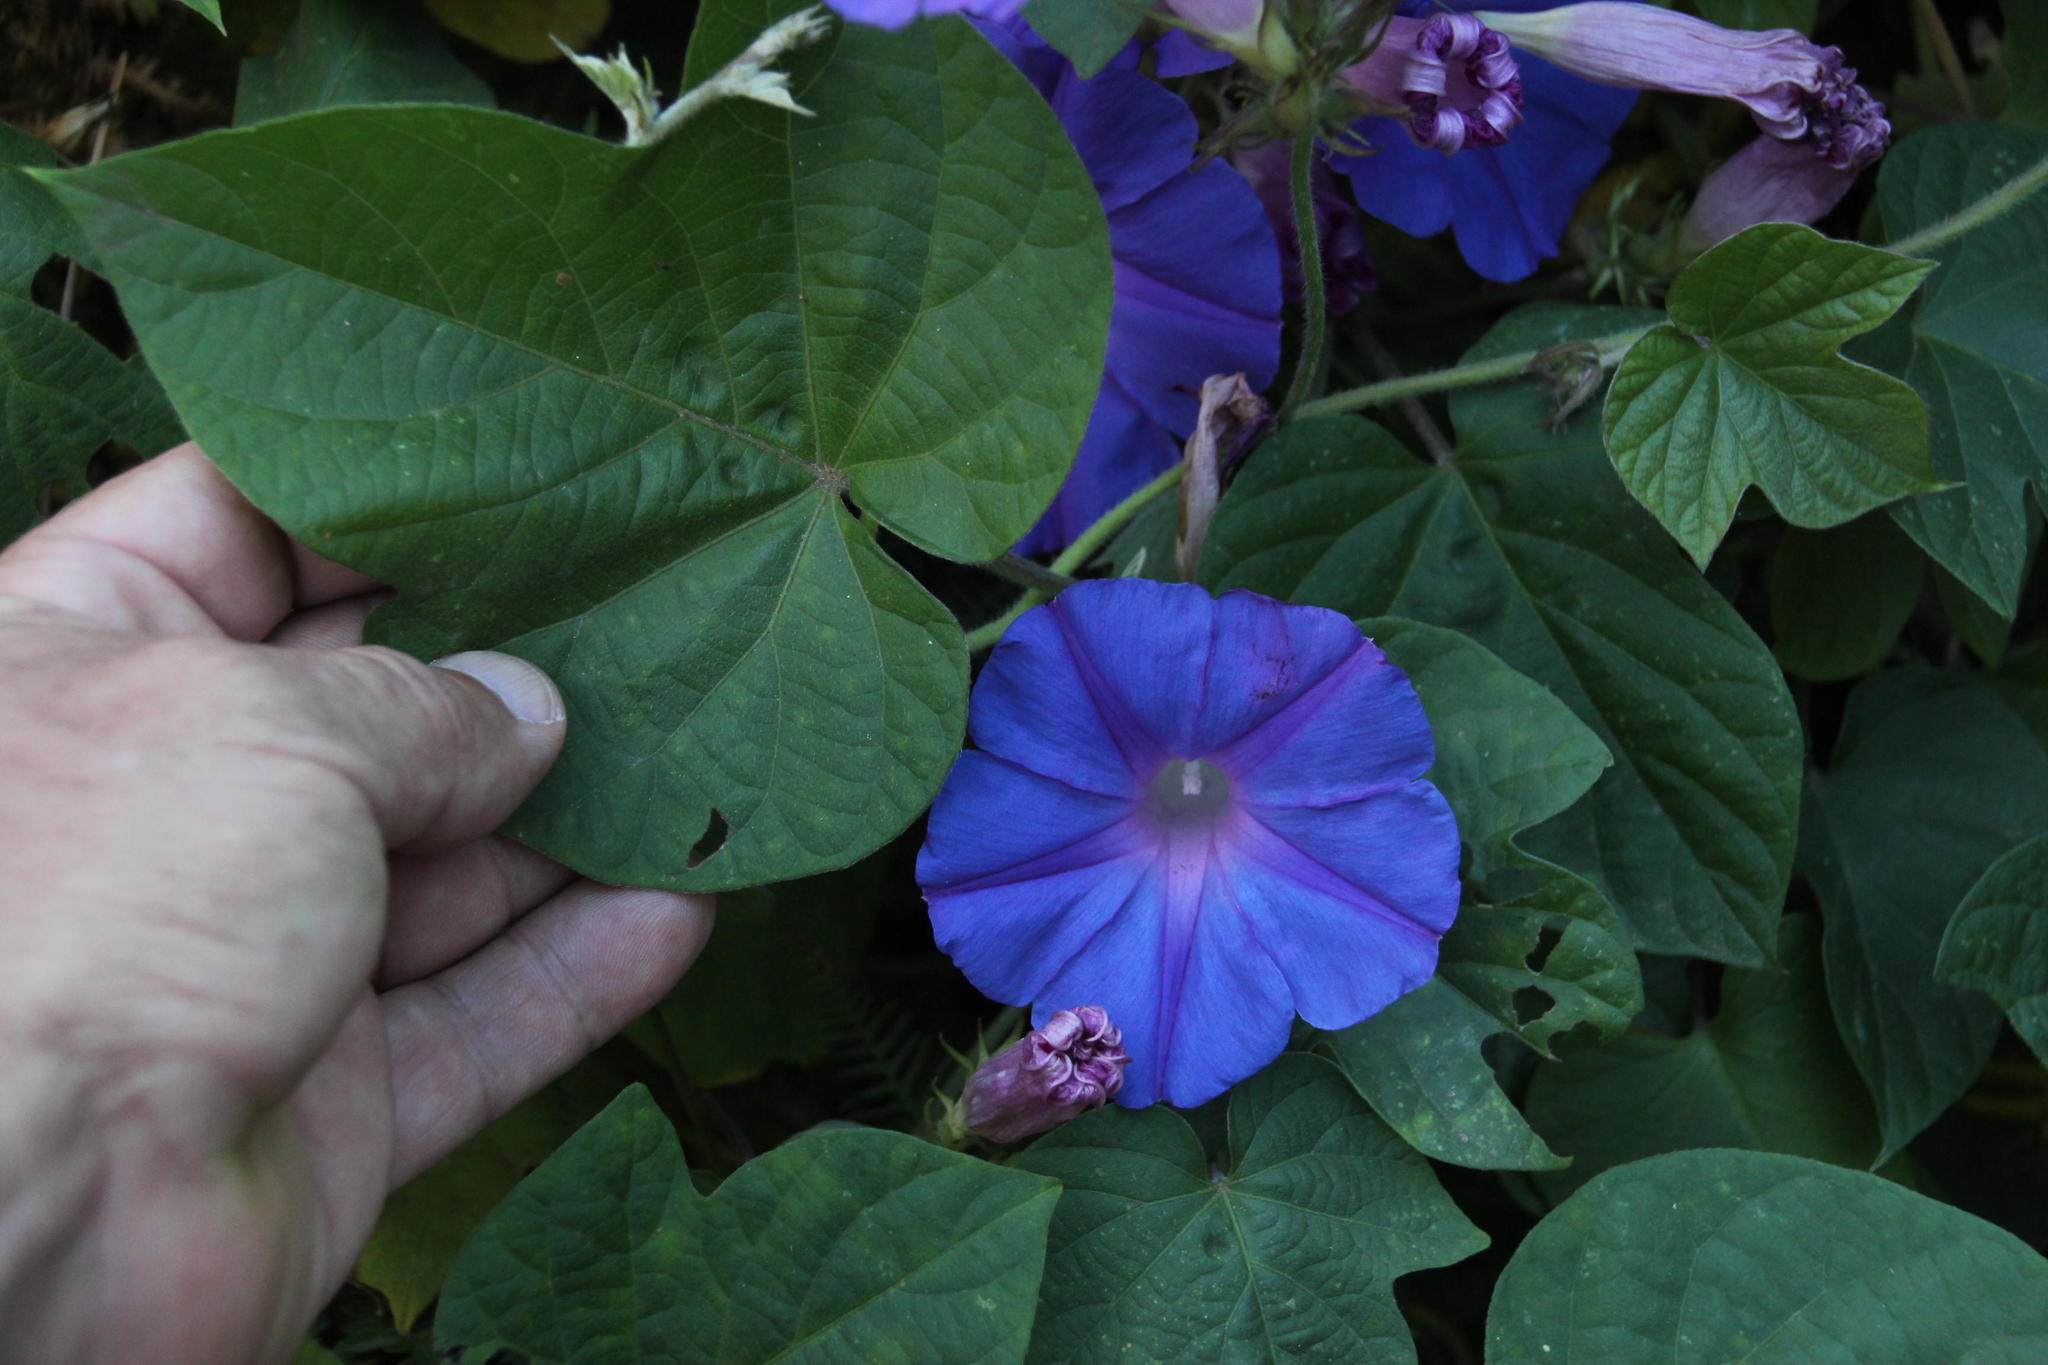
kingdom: Plantae
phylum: Tracheophyta
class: Magnoliopsida
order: Solanales
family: Convolvulaceae
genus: Ipomoea
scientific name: Ipomoea indica
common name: Blue dawnflower
